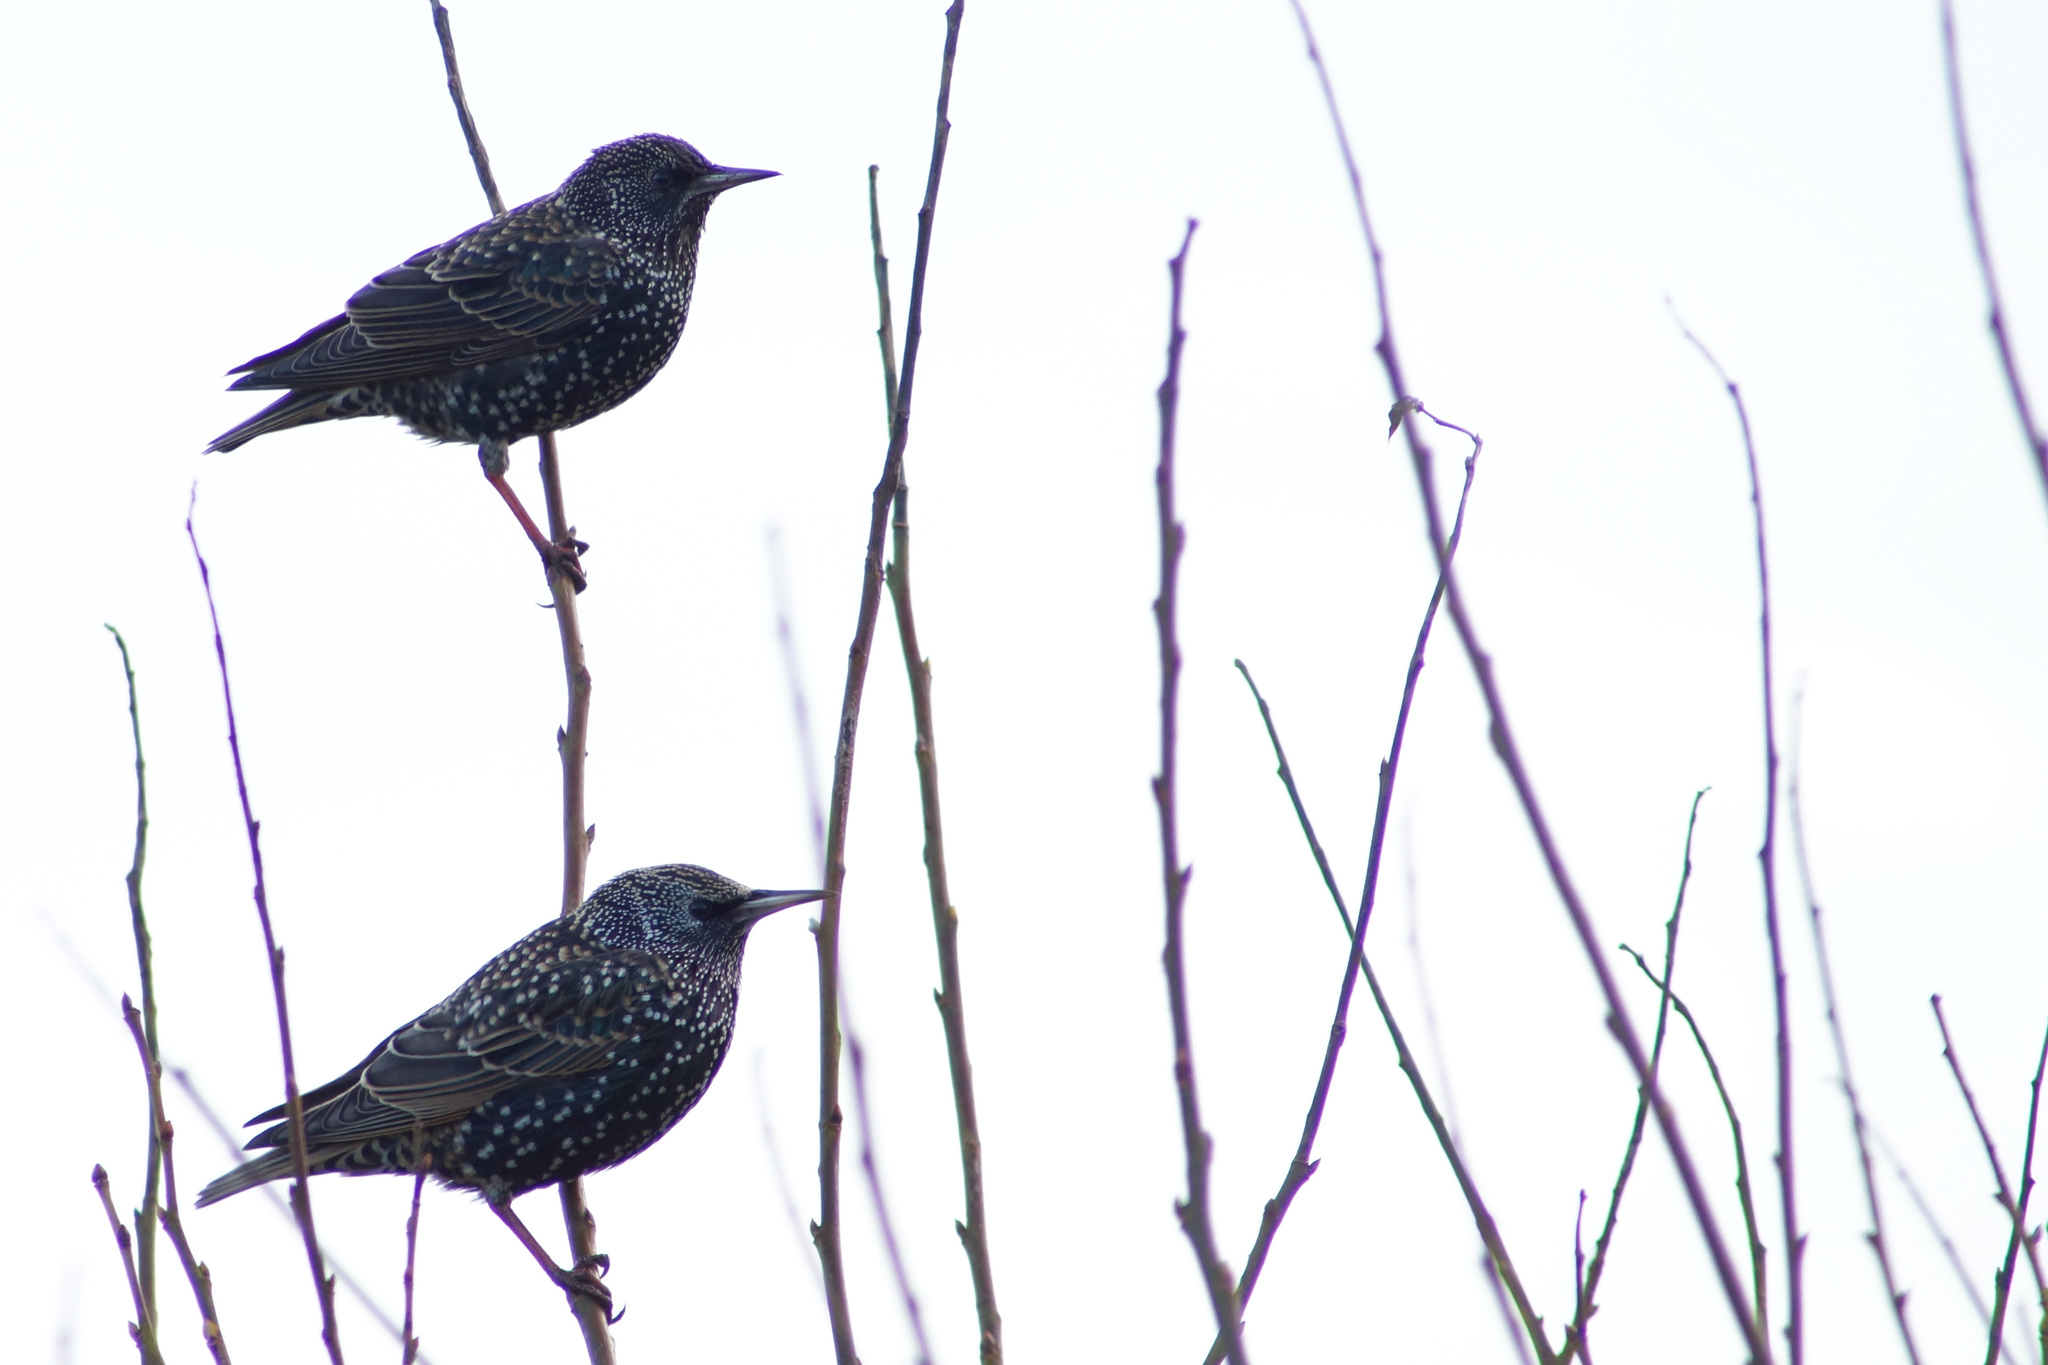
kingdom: Animalia
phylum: Chordata
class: Aves
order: Passeriformes
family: Sturnidae
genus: Sturnus
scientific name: Sturnus vulgaris
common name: Common starling
